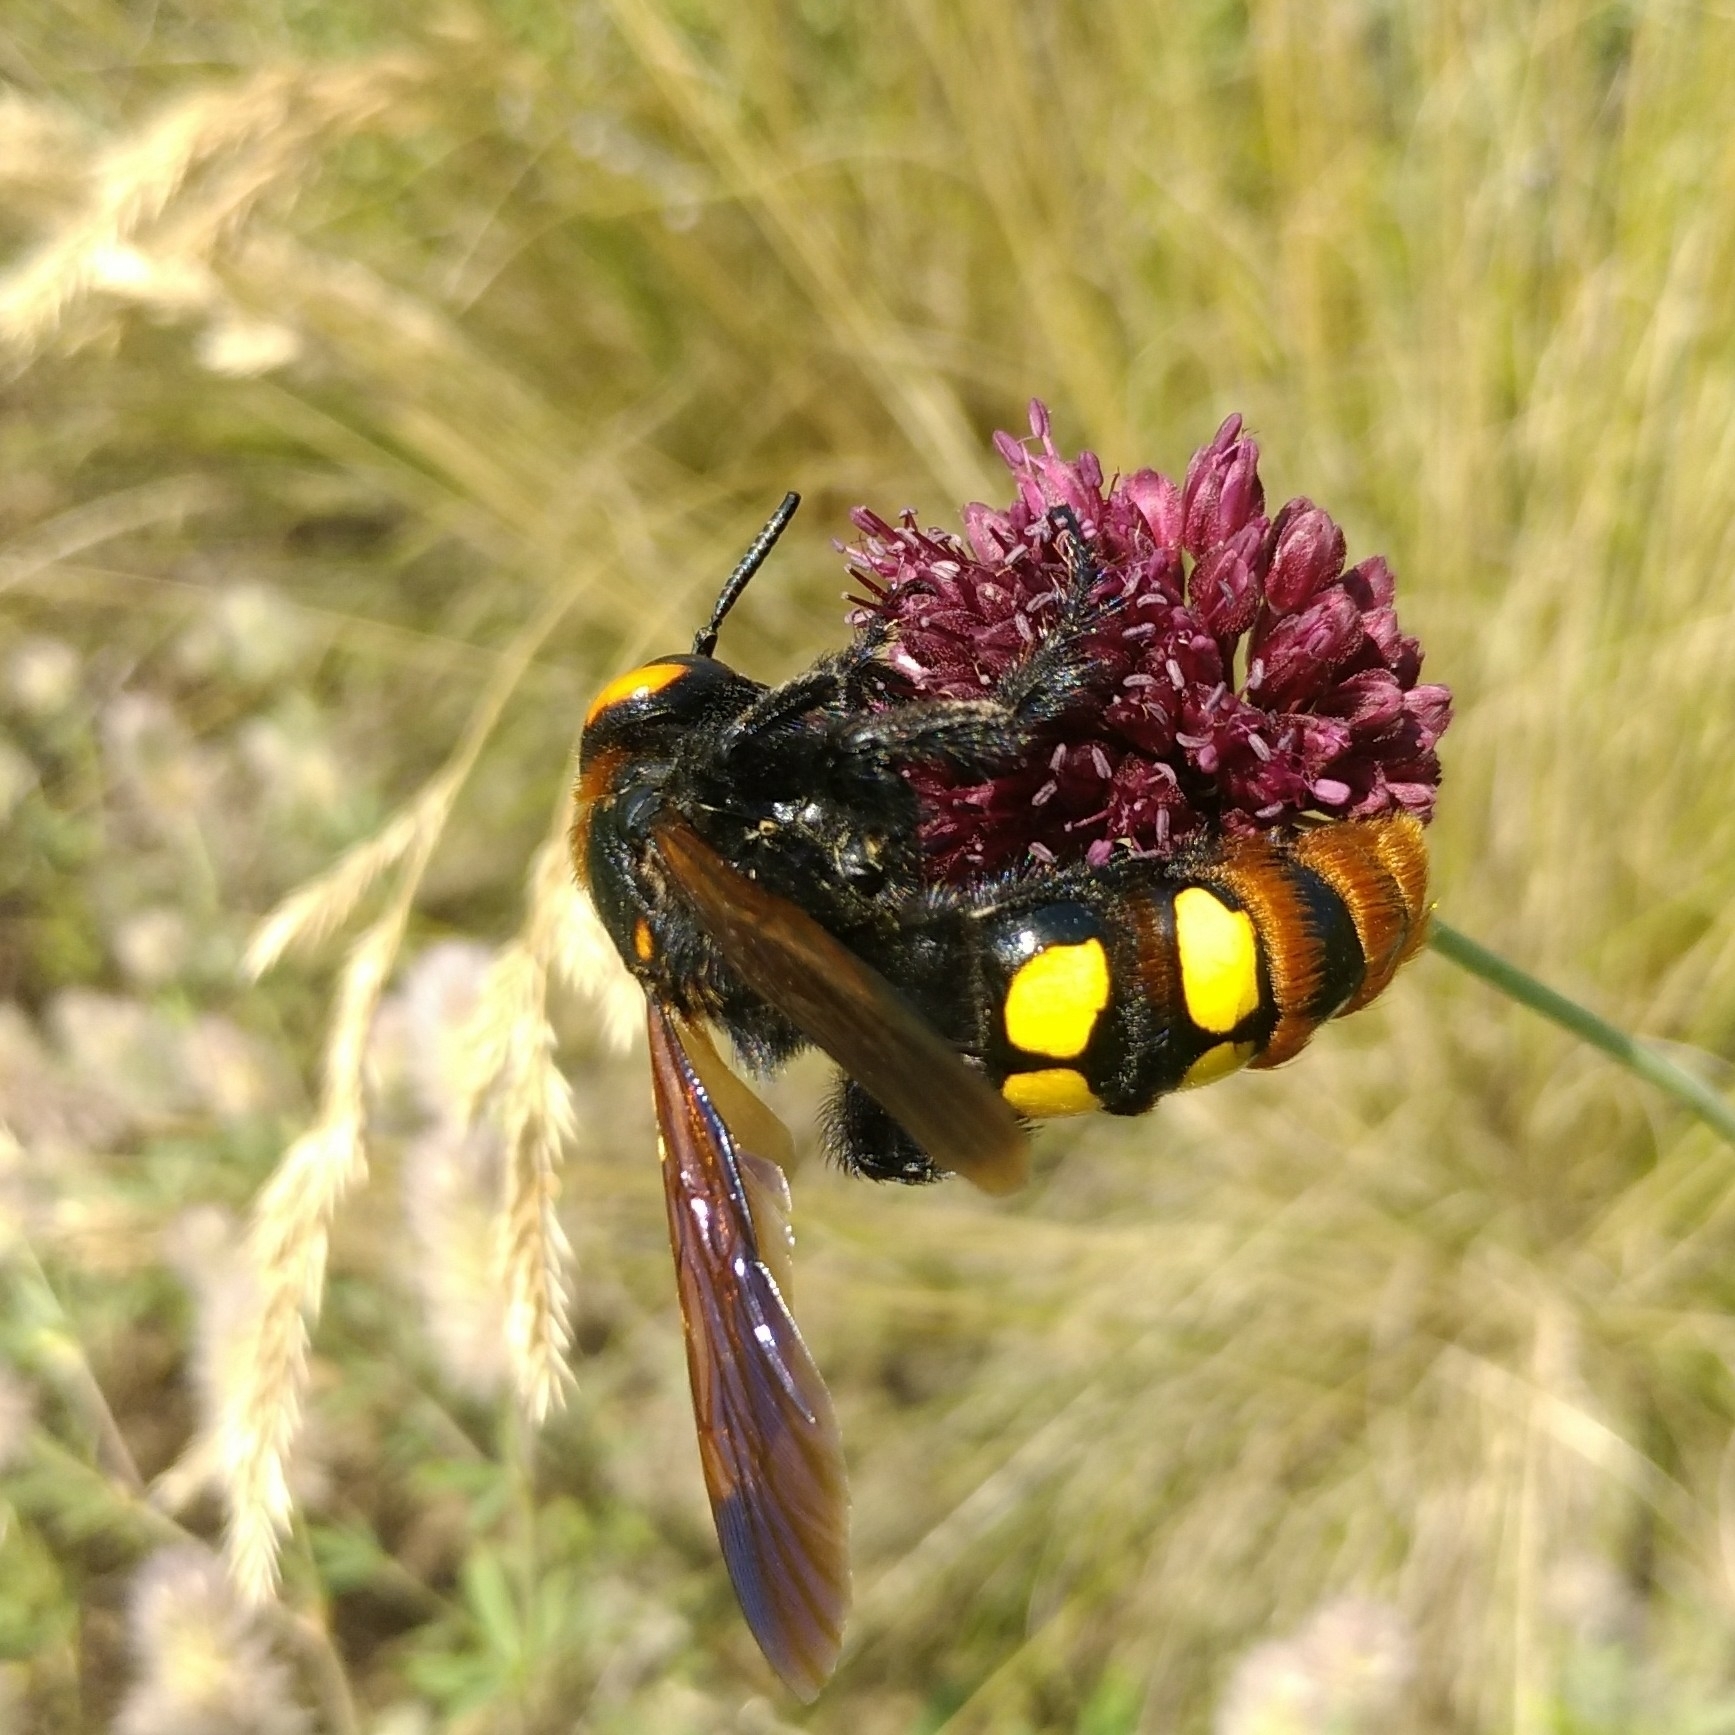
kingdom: Animalia
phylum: Arthropoda
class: Insecta
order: Hymenoptera
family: Scoliidae
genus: Megascolia
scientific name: Megascolia maculata
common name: Mammoth wasp
